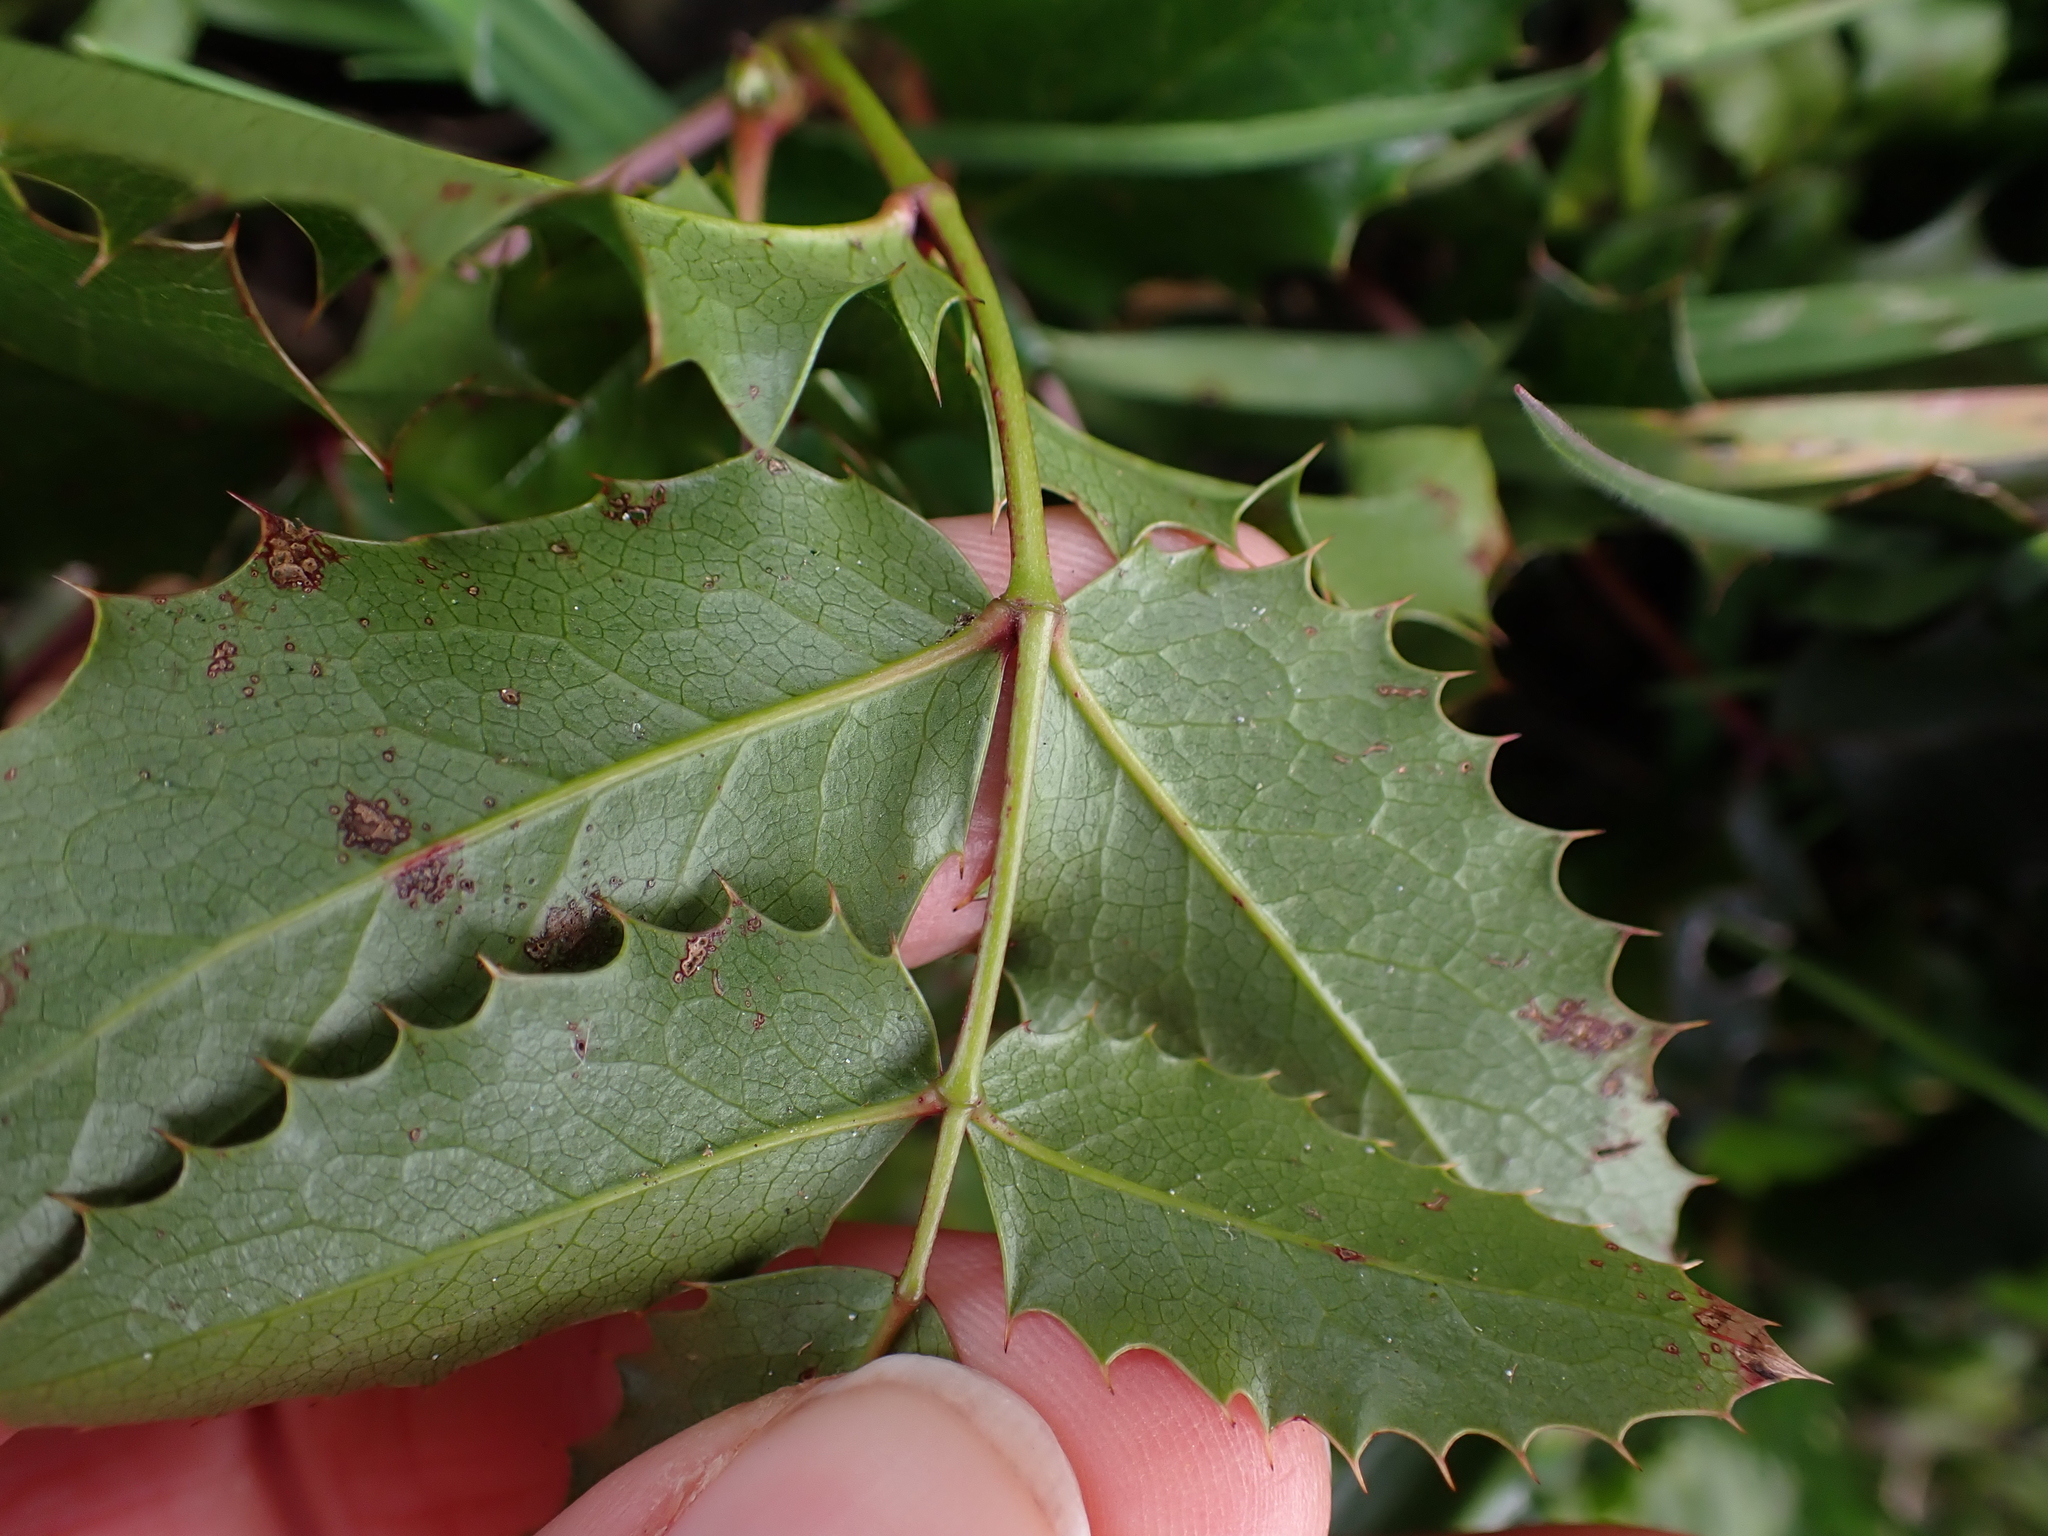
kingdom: Plantae
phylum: Tracheophyta
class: Magnoliopsida
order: Ranunculales
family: Berberidaceae
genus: Mahonia
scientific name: Mahonia aquifolium
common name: Oregon-grape
